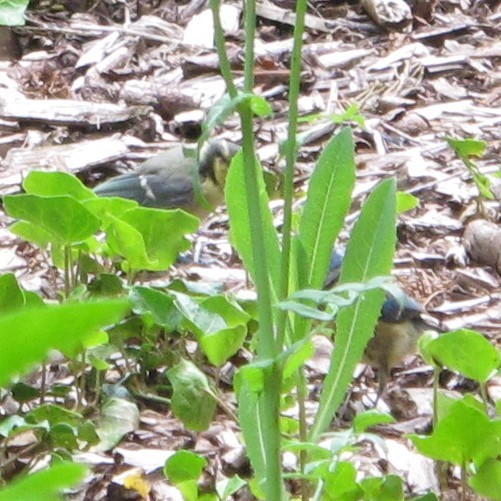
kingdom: Animalia
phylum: Chordata
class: Aves
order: Passeriformes
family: Paridae
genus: Cyanistes
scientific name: Cyanistes caeruleus
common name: Eurasian blue tit
